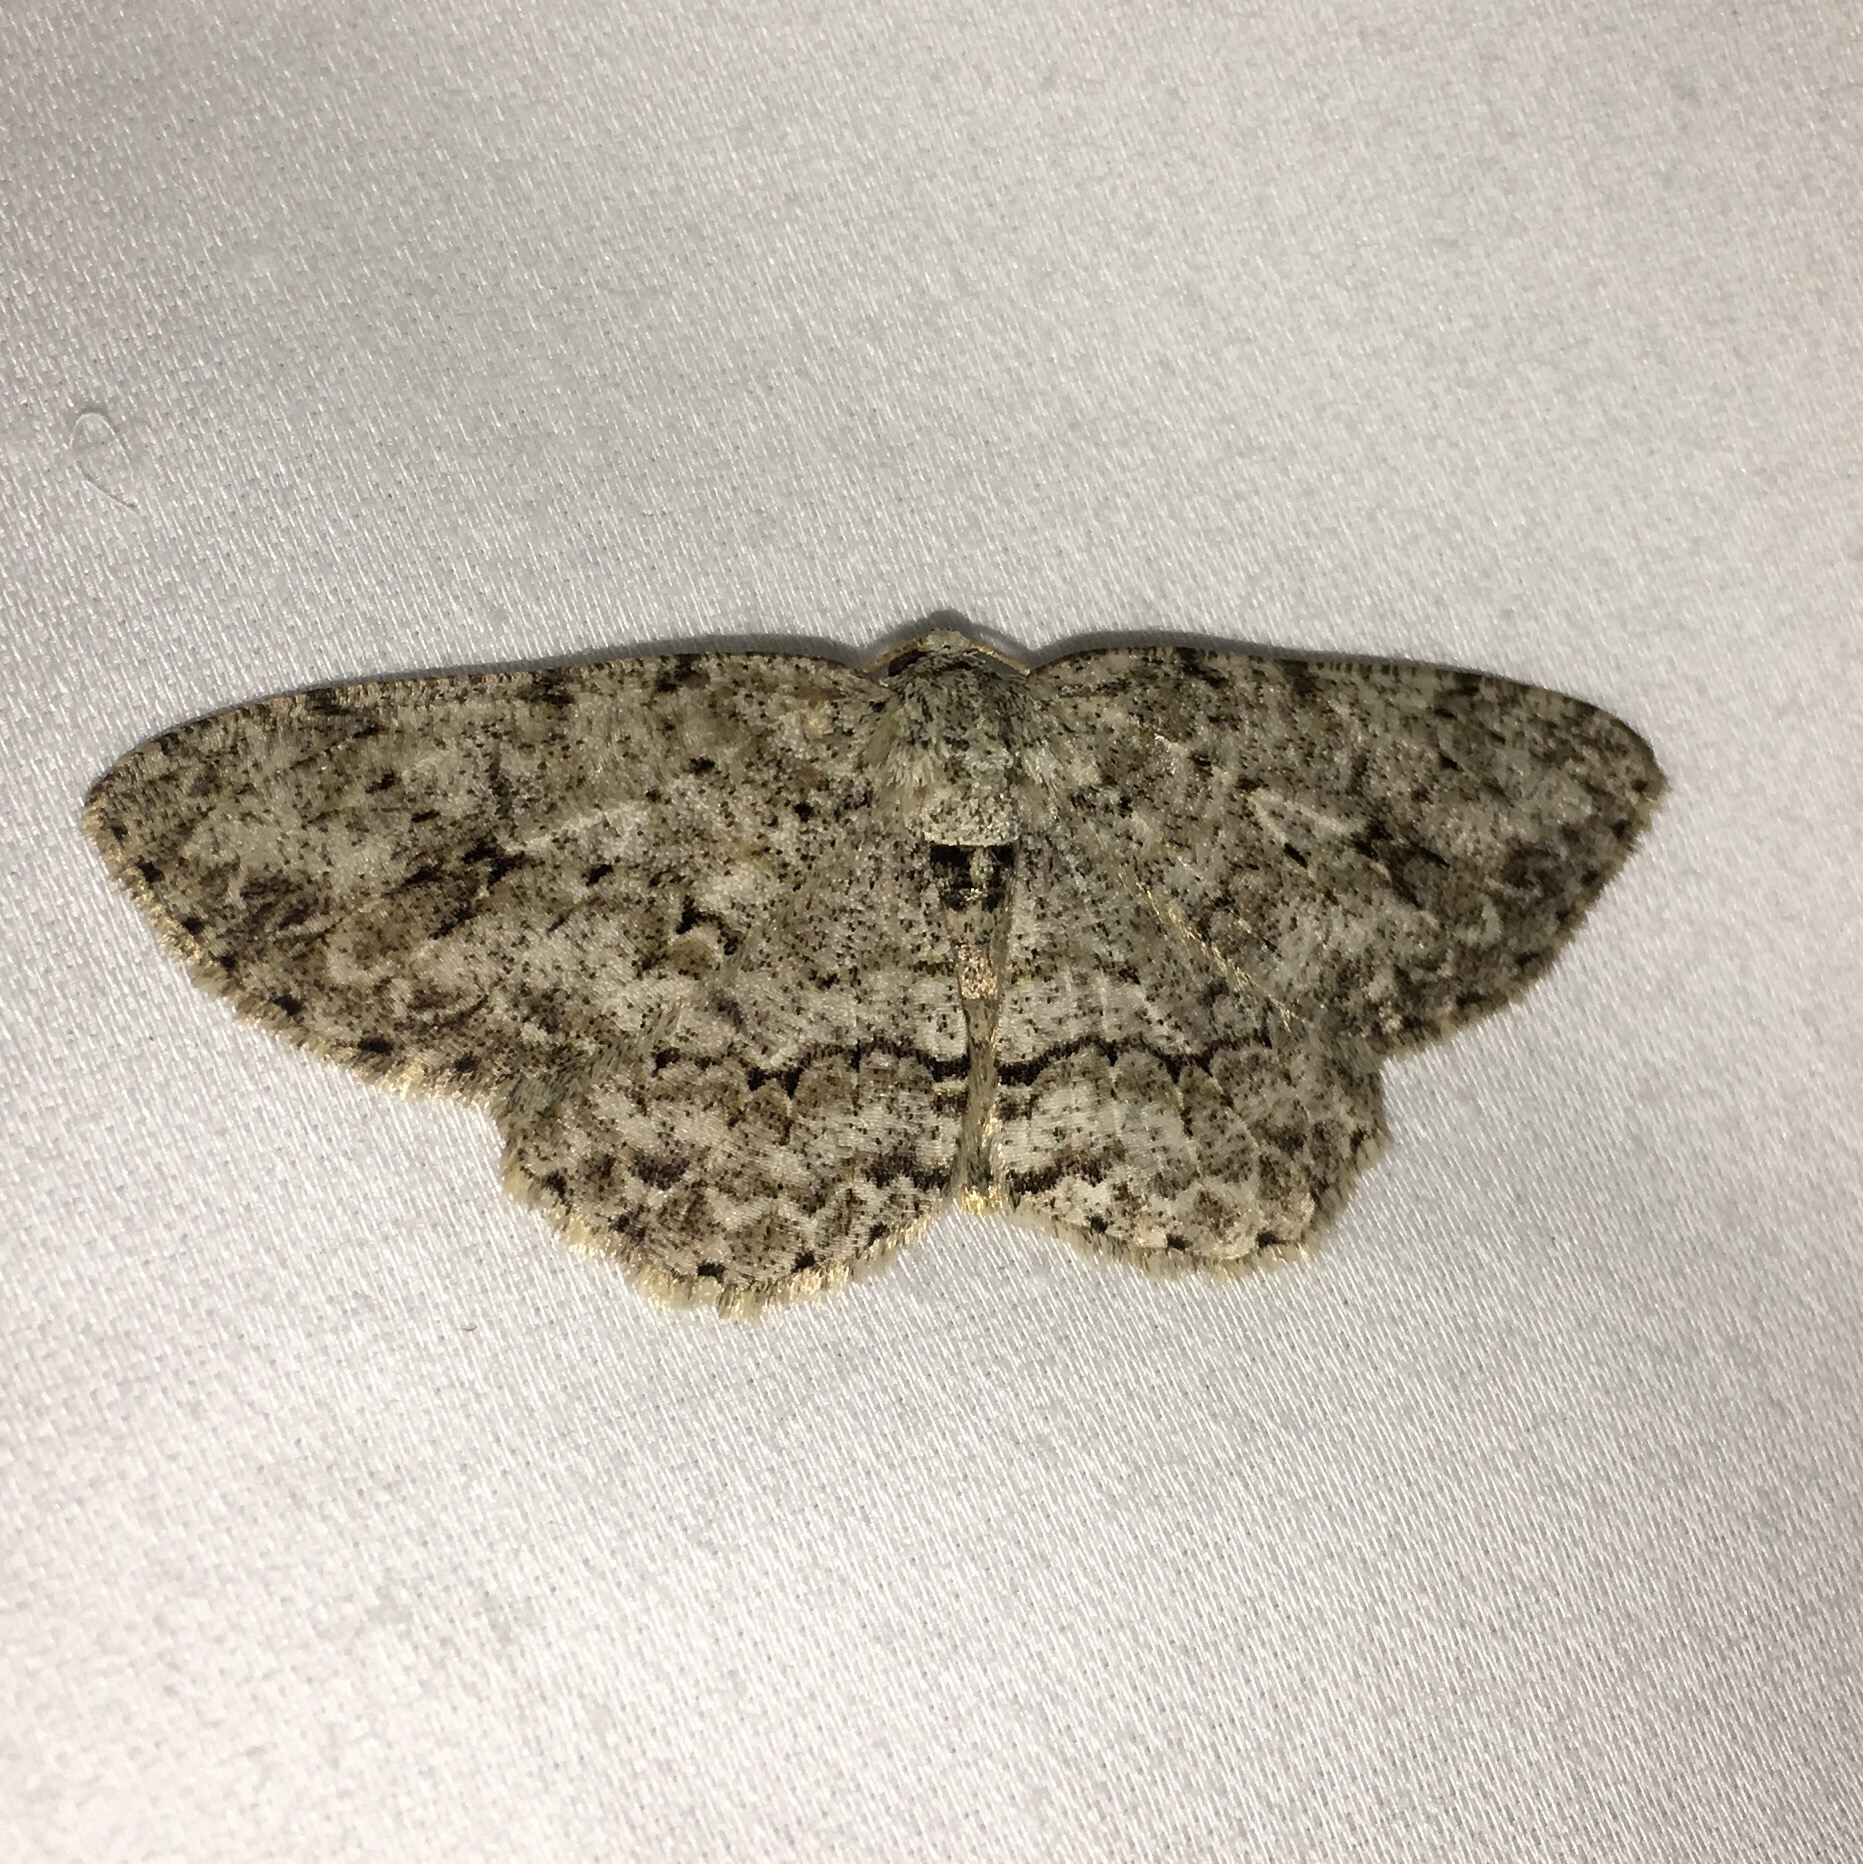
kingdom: Animalia
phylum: Arthropoda
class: Insecta
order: Lepidoptera
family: Geometridae
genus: Ectropis
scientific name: Ectropis crepuscularia
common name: Engrailed
